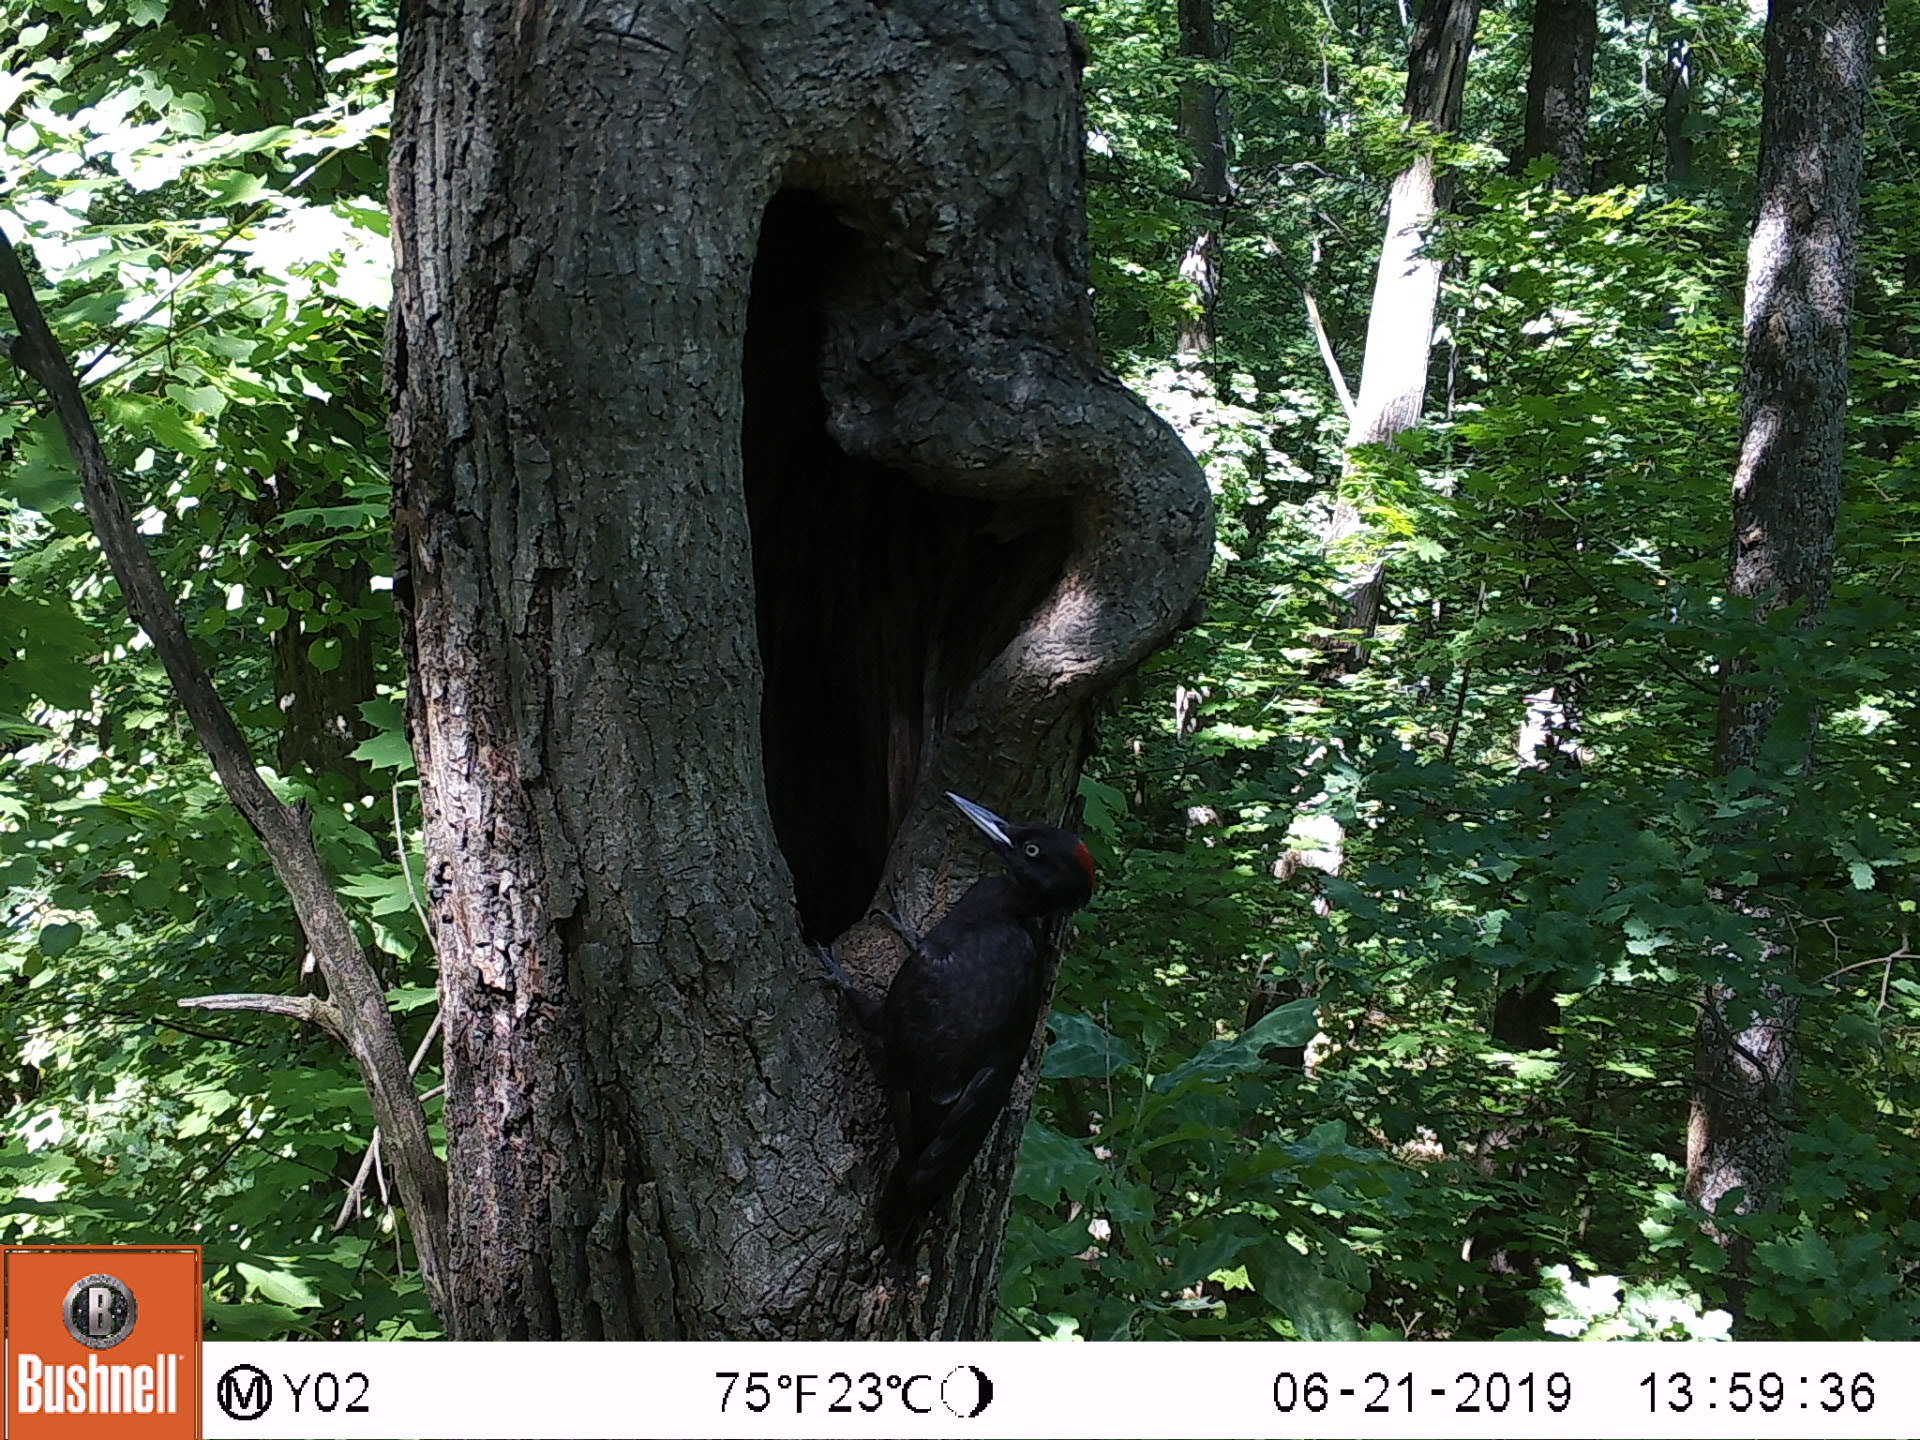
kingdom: Animalia
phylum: Chordata
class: Aves
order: Piciformes
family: Picidae
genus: Dryocopus
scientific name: Dryocopus martius
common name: Black woodpecker
